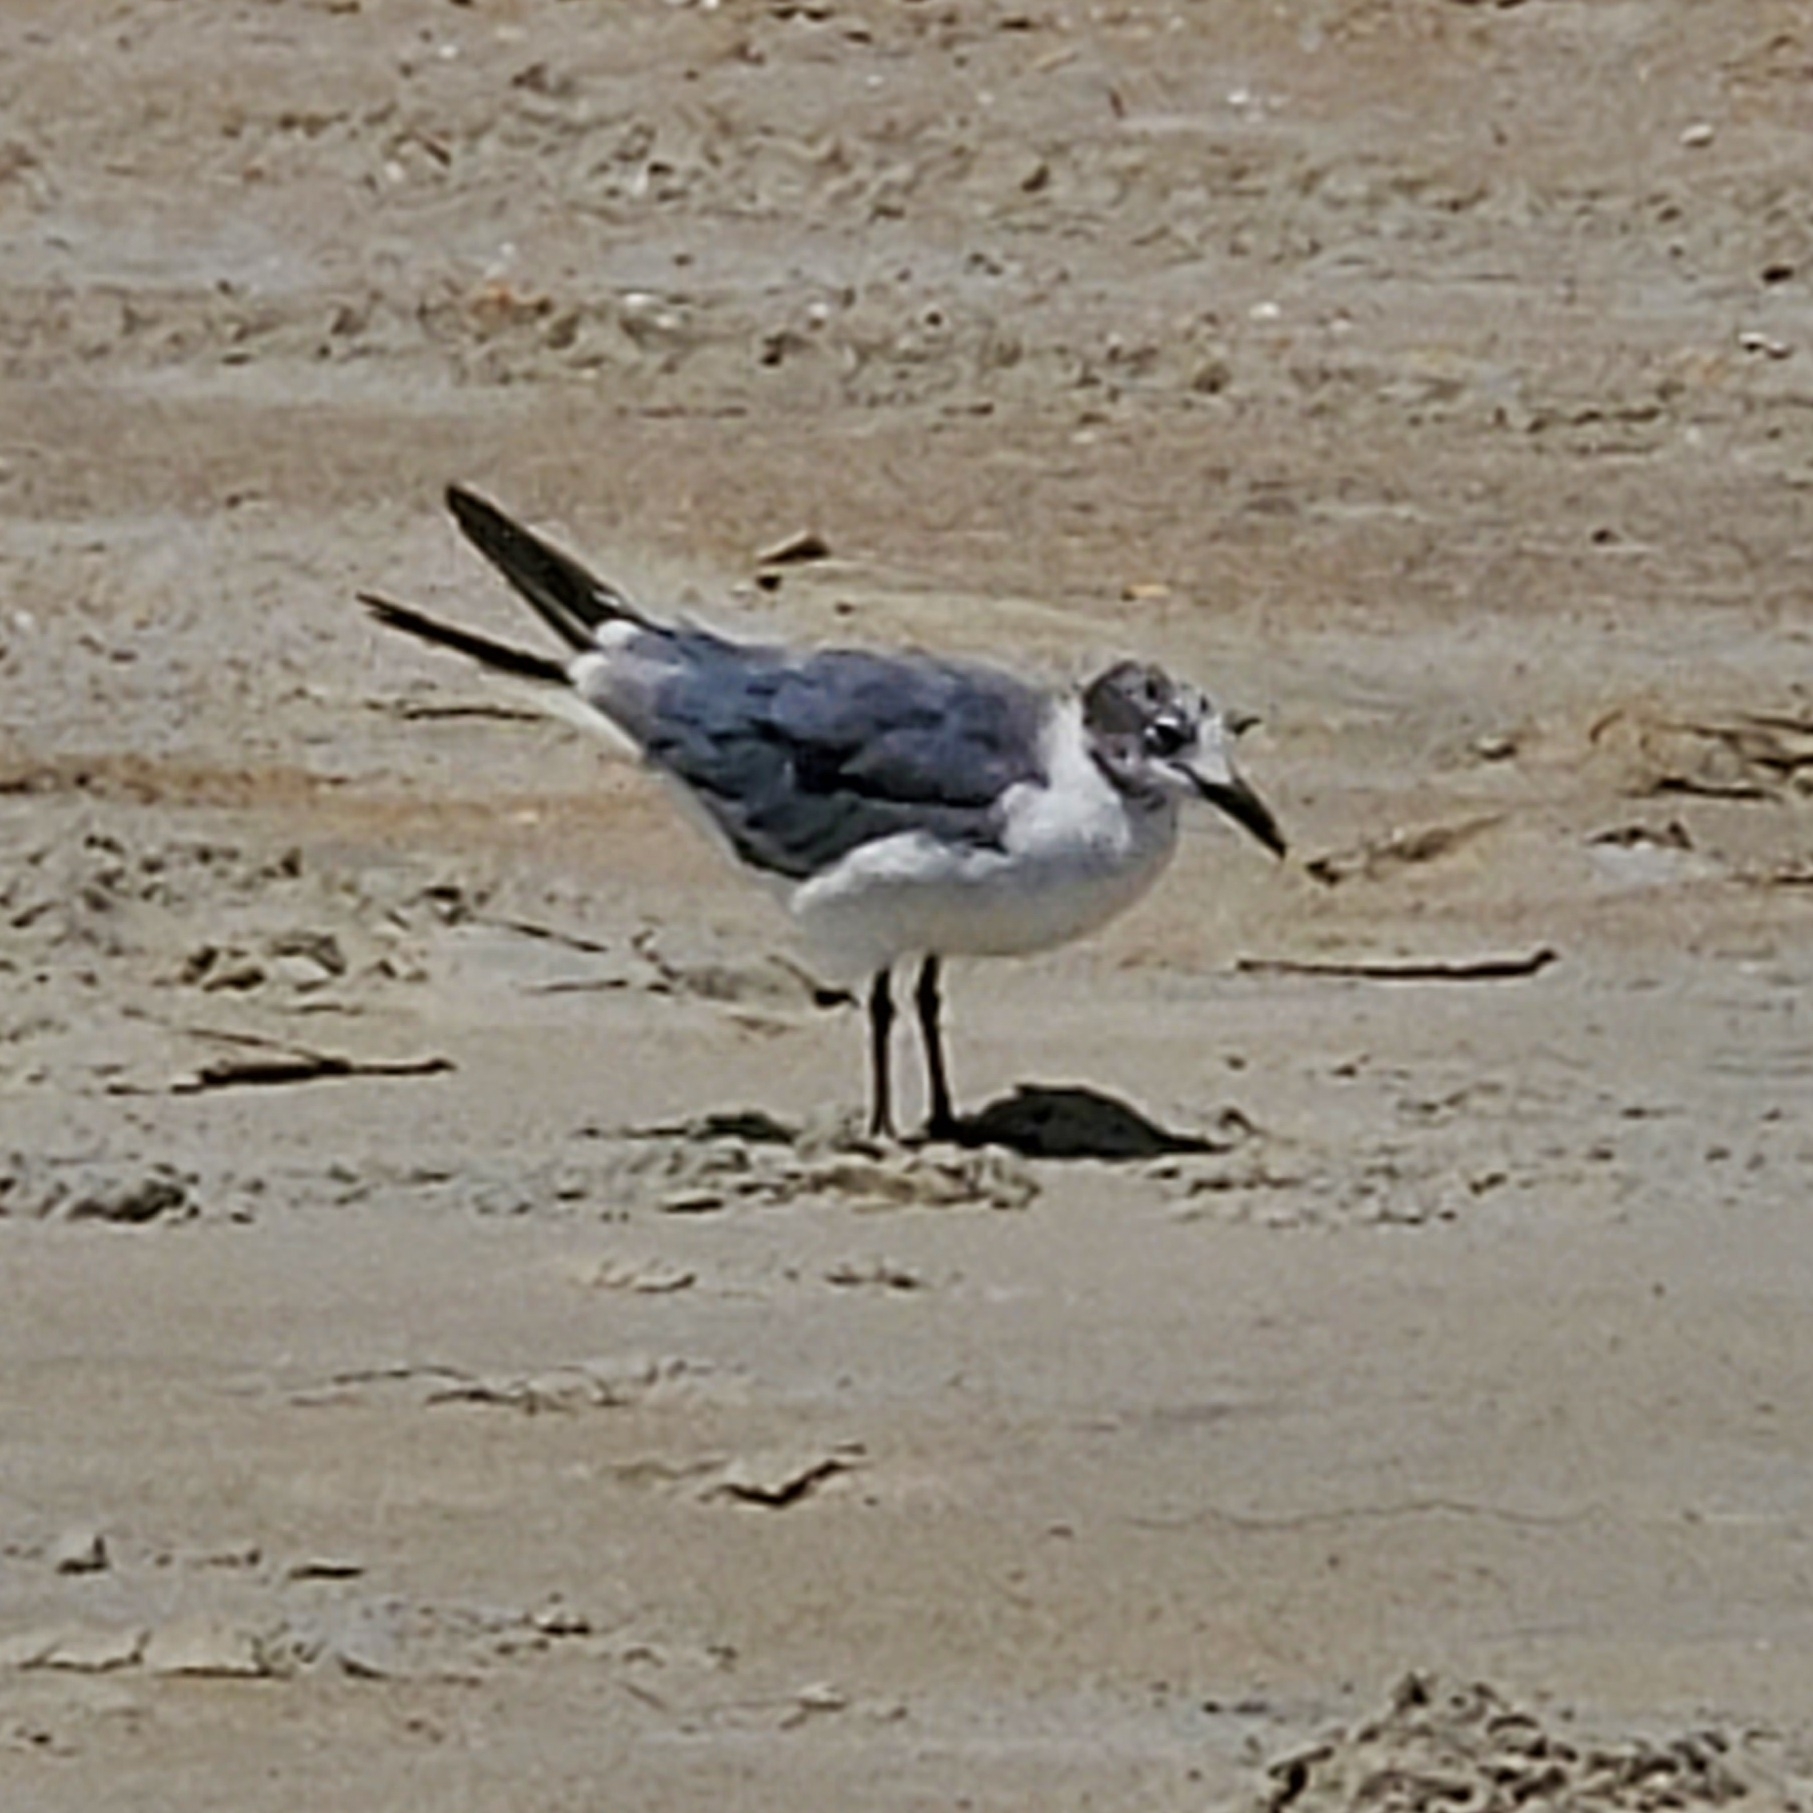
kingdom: Animalia
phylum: Chordata
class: Aves
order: Charadriiformes
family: Laridae
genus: Leucophaeus
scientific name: Leucophaeus atricilla
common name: Laughing gull
